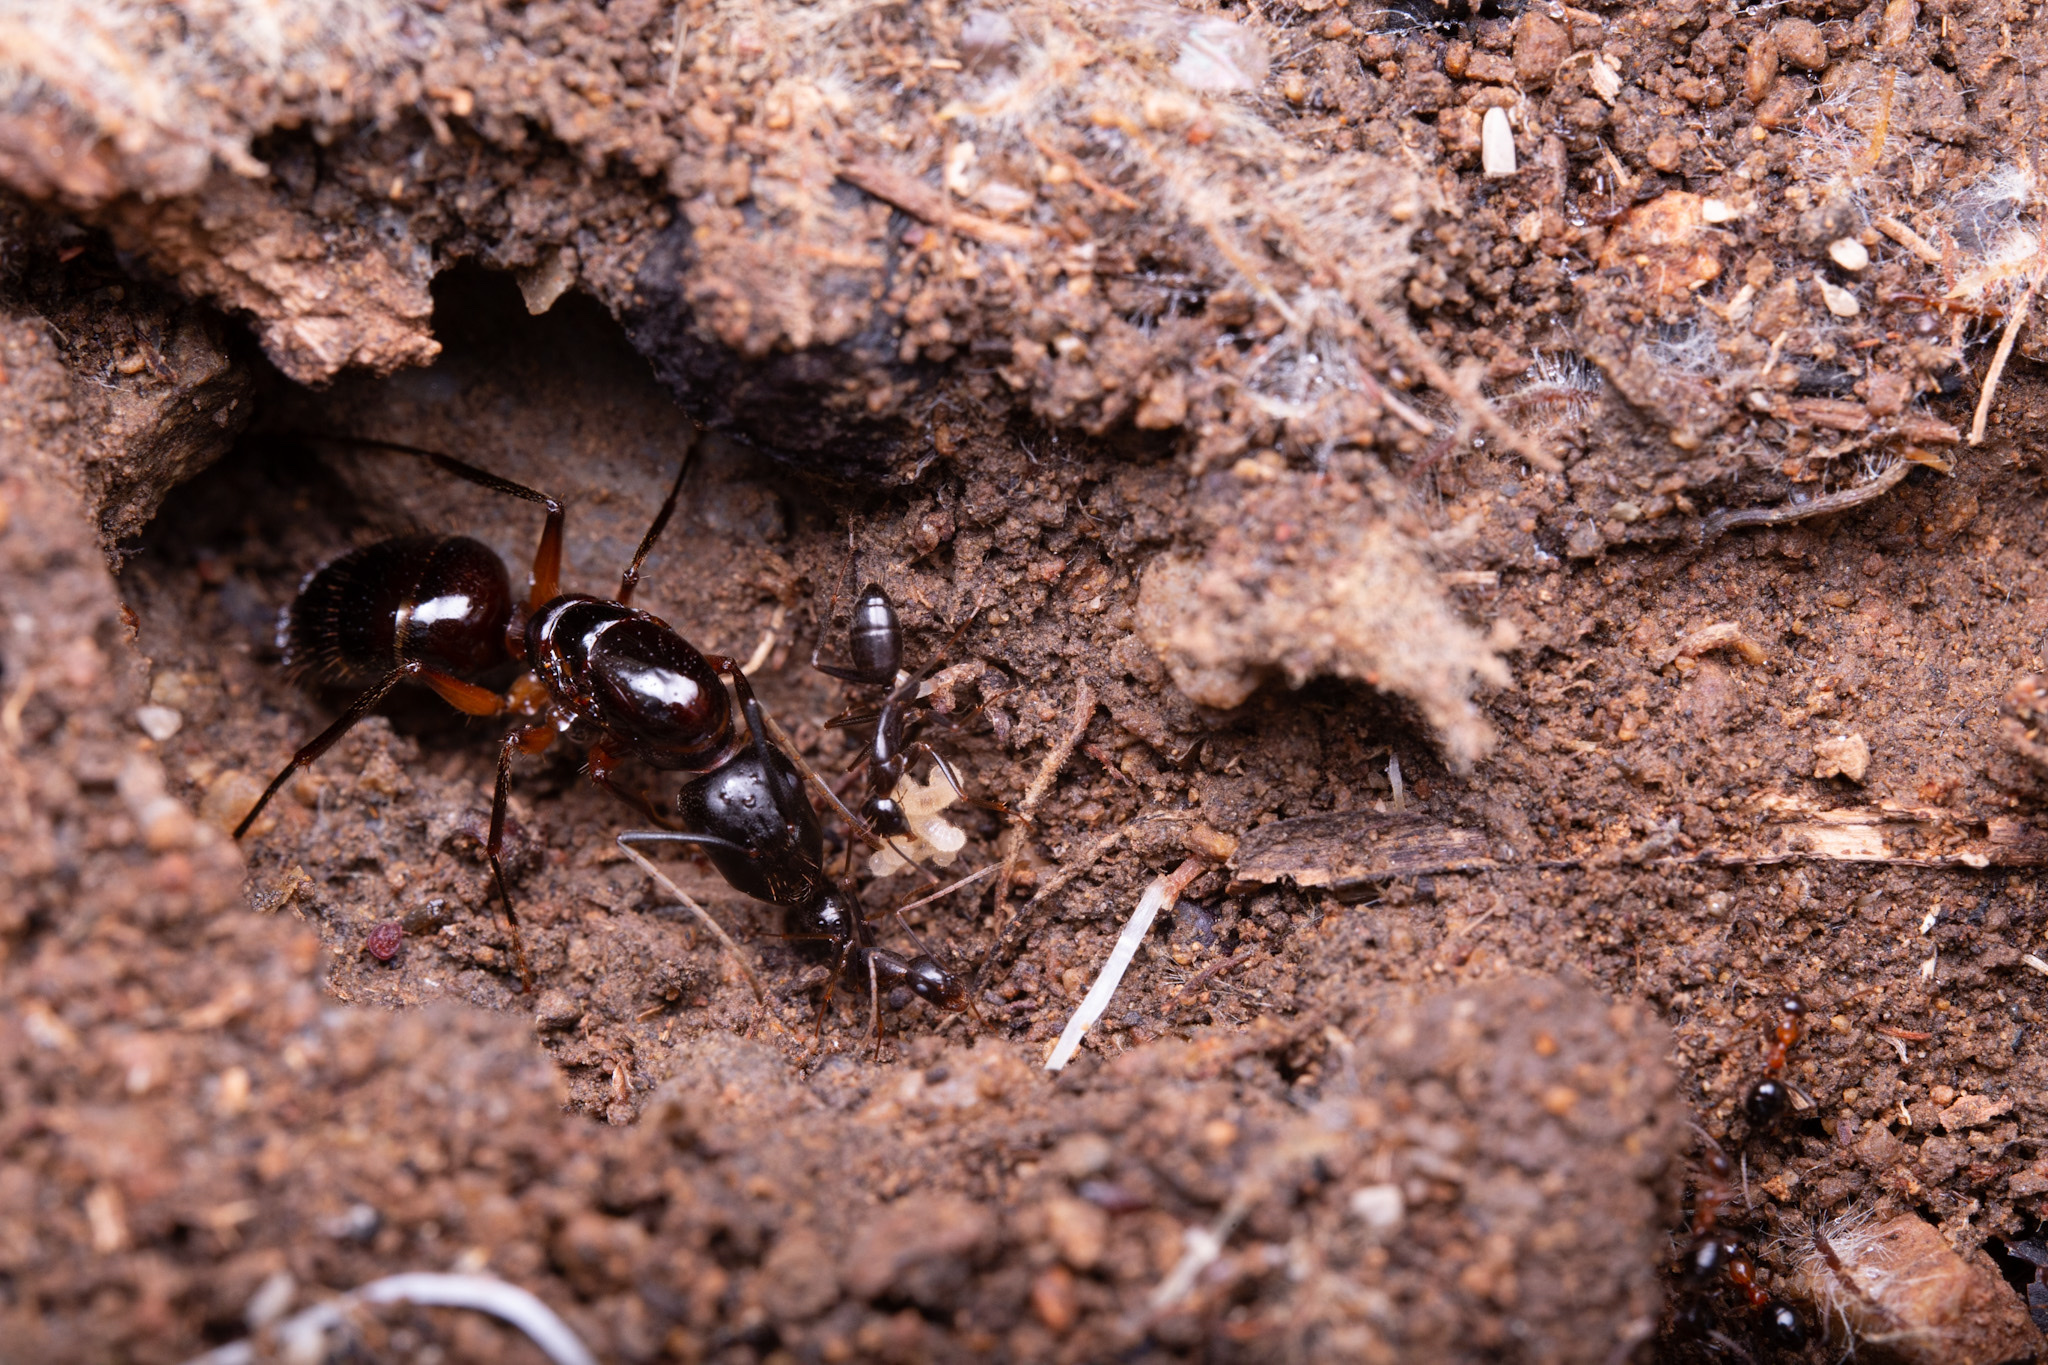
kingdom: Animalia
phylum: Arthropoda
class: Insecta
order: Hymenoptera
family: Formicidae
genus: Camponotus
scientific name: Camponotus ionius
